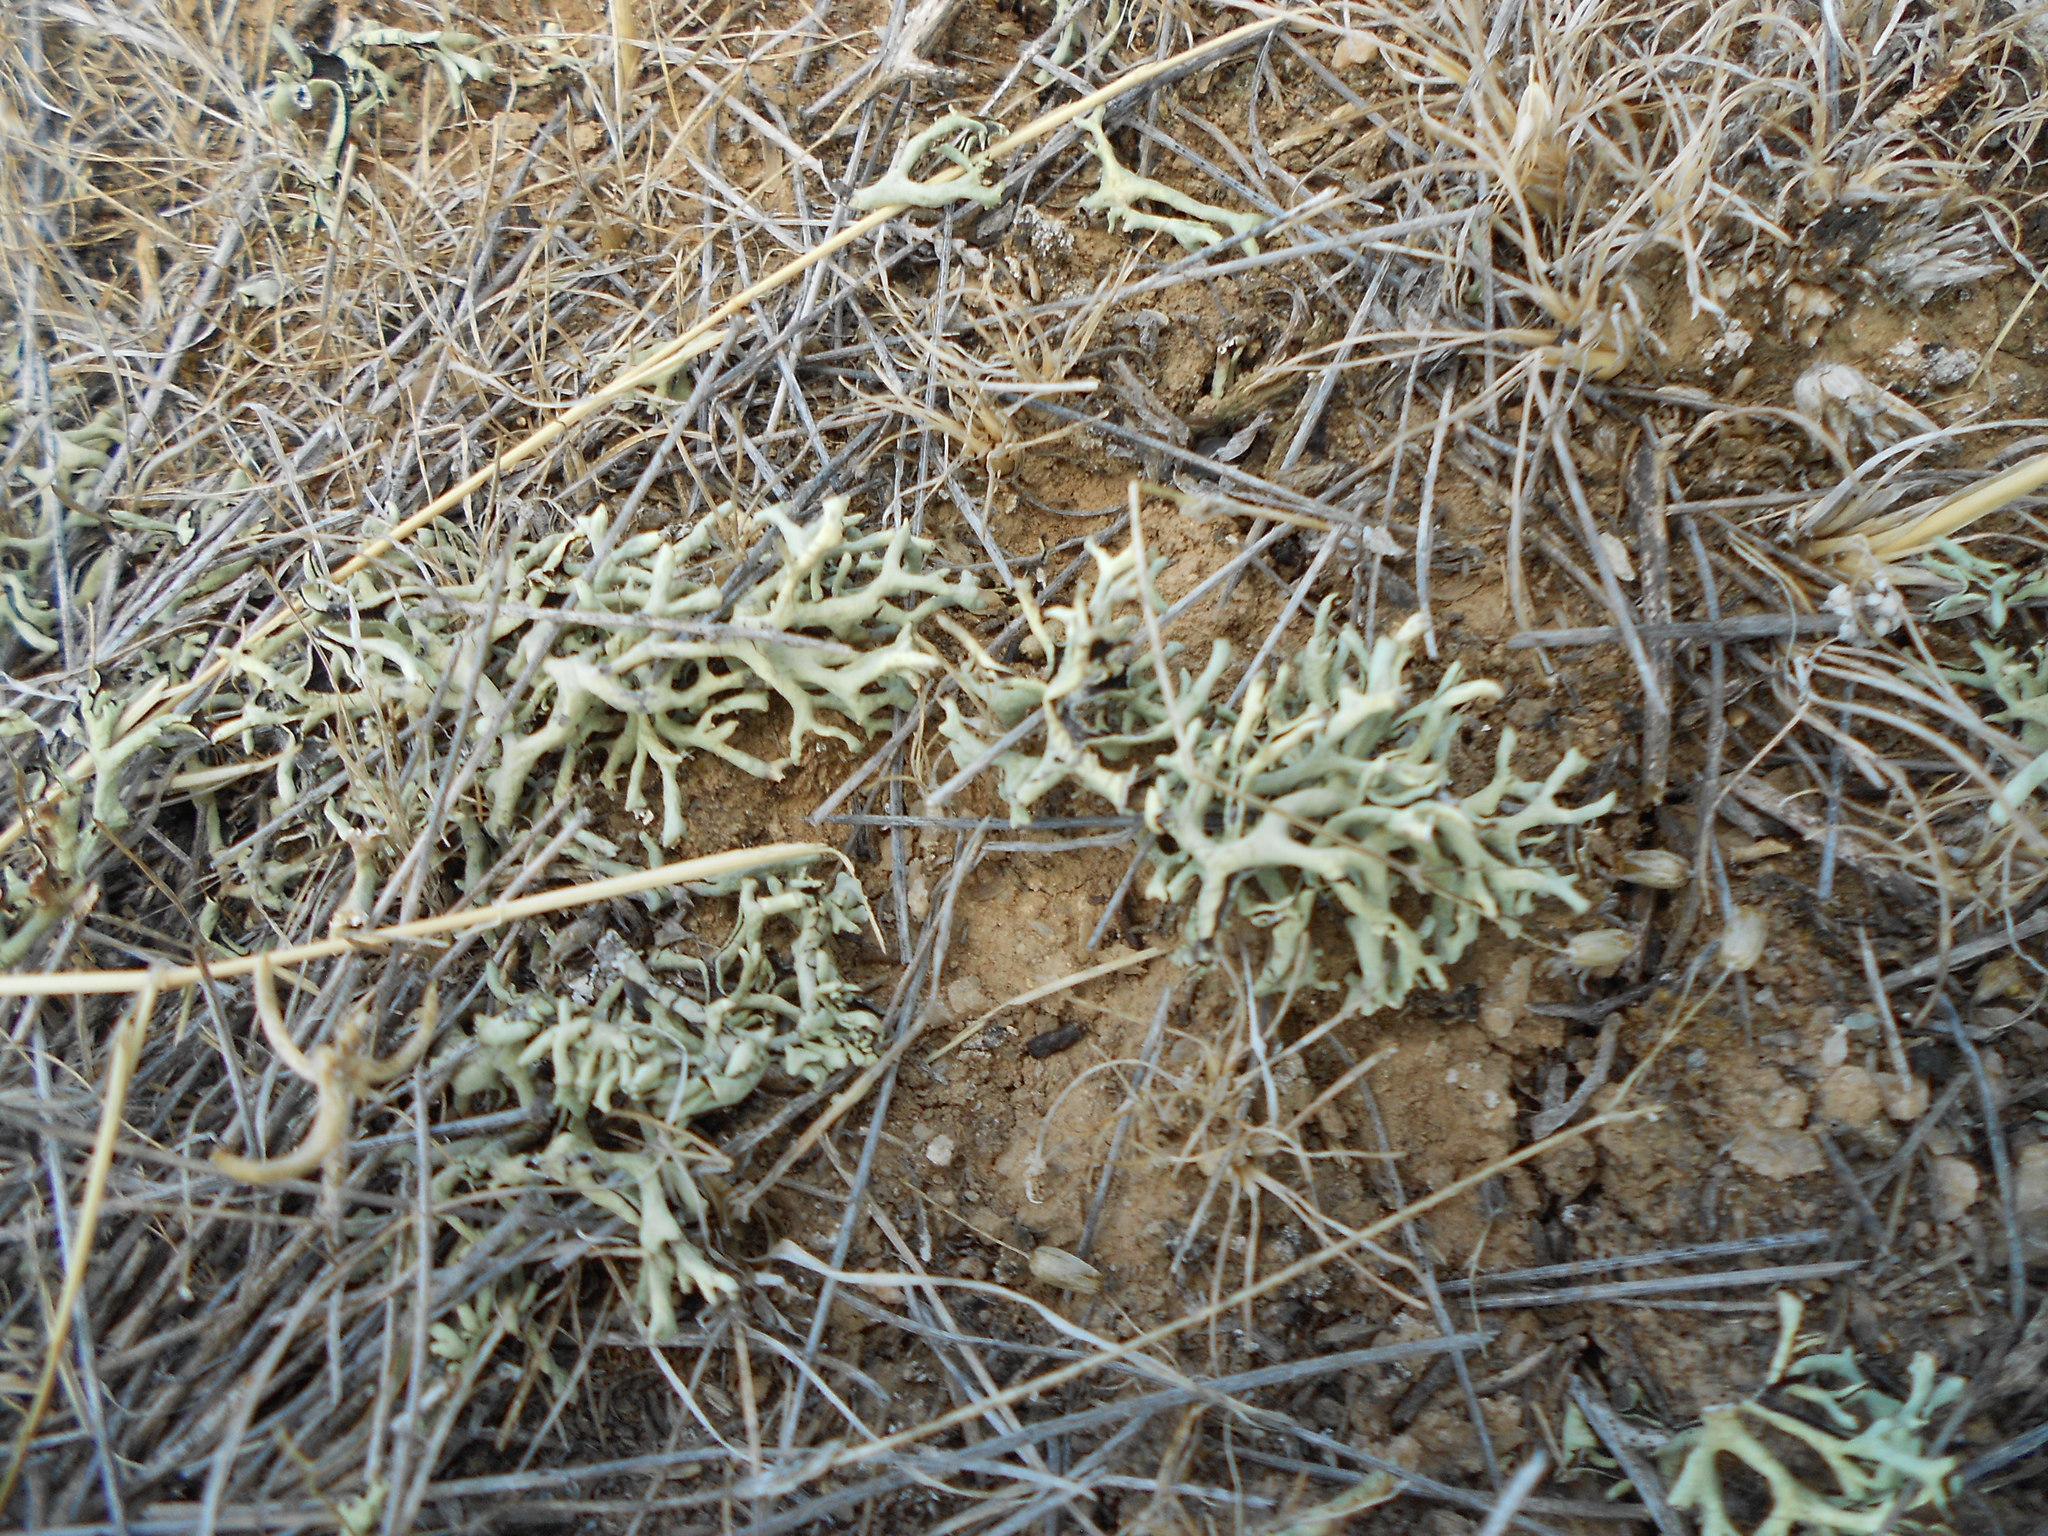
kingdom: Fungi
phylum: Ascomycota
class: Lecanoromycetes
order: Lecanorales
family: Parmeliaceae
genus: Xanthoparmelia
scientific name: Xanthoparmelia camtschadalis
